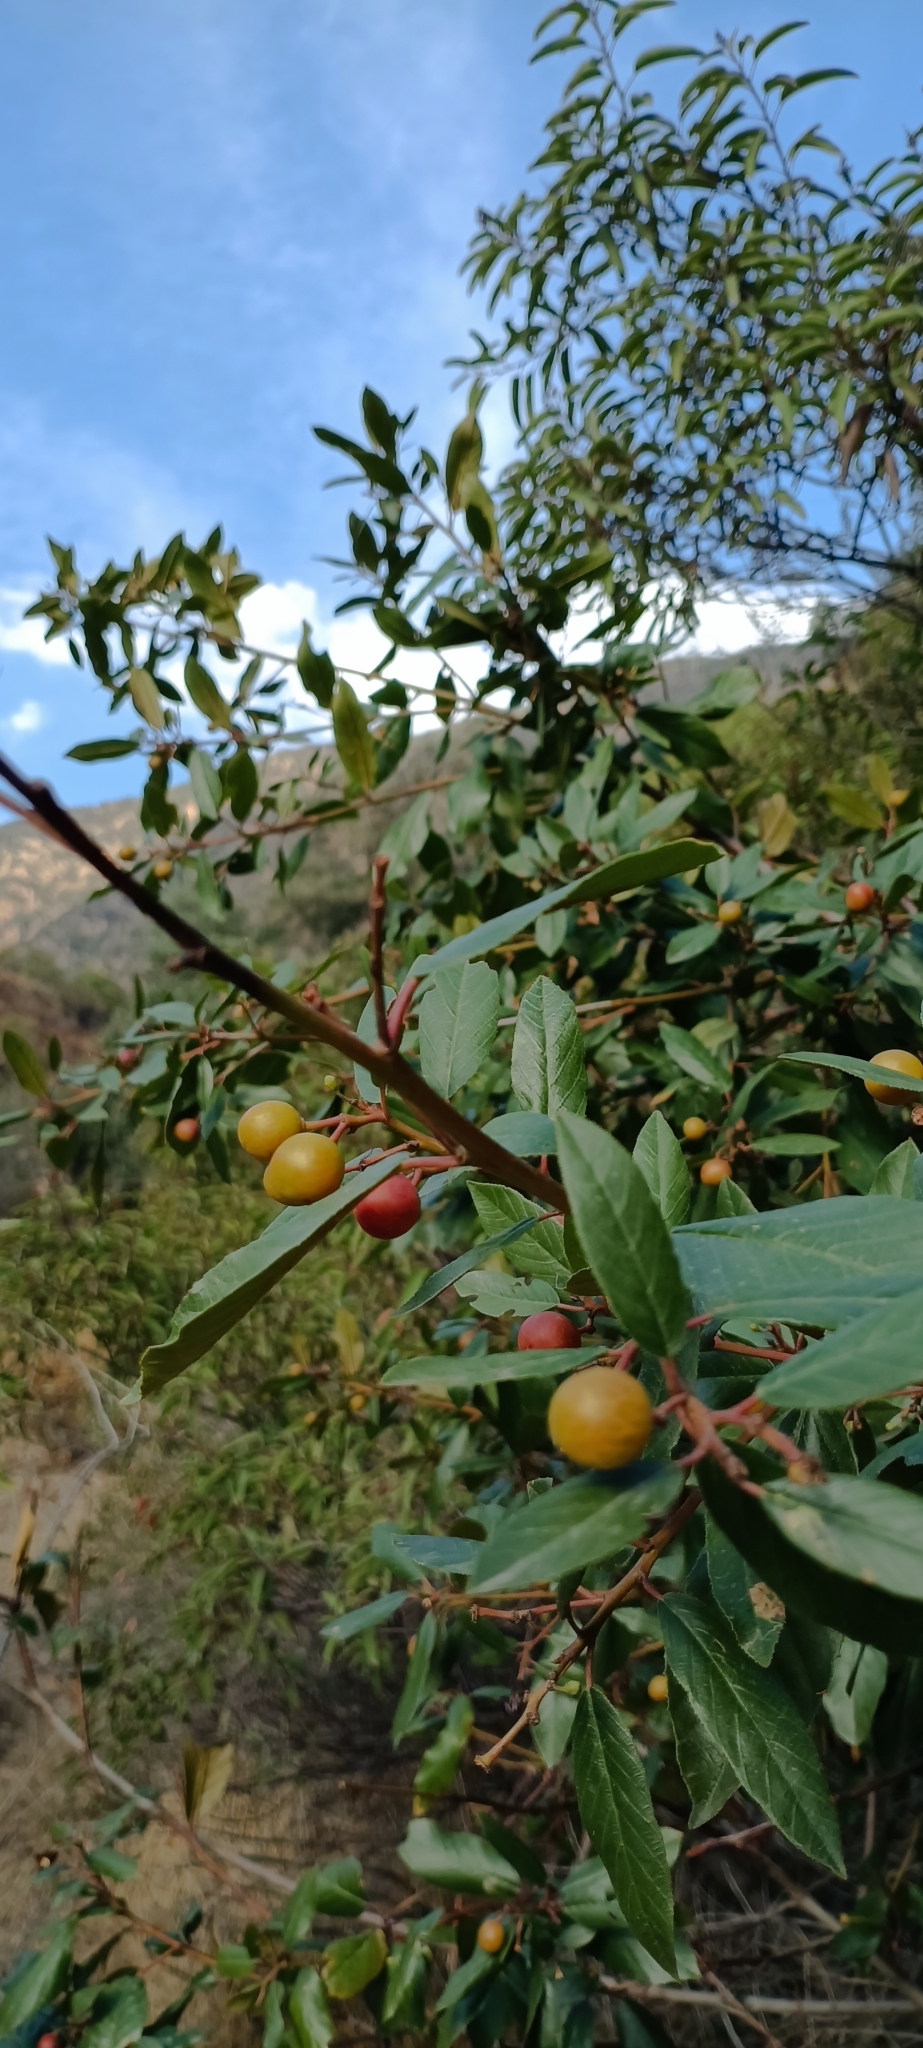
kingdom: Plantae
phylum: Tracheophyta
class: Magnoliopsida
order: Rosales
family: Rhamnaceae
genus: Frangula
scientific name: Frangula californica
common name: California buckthorn
